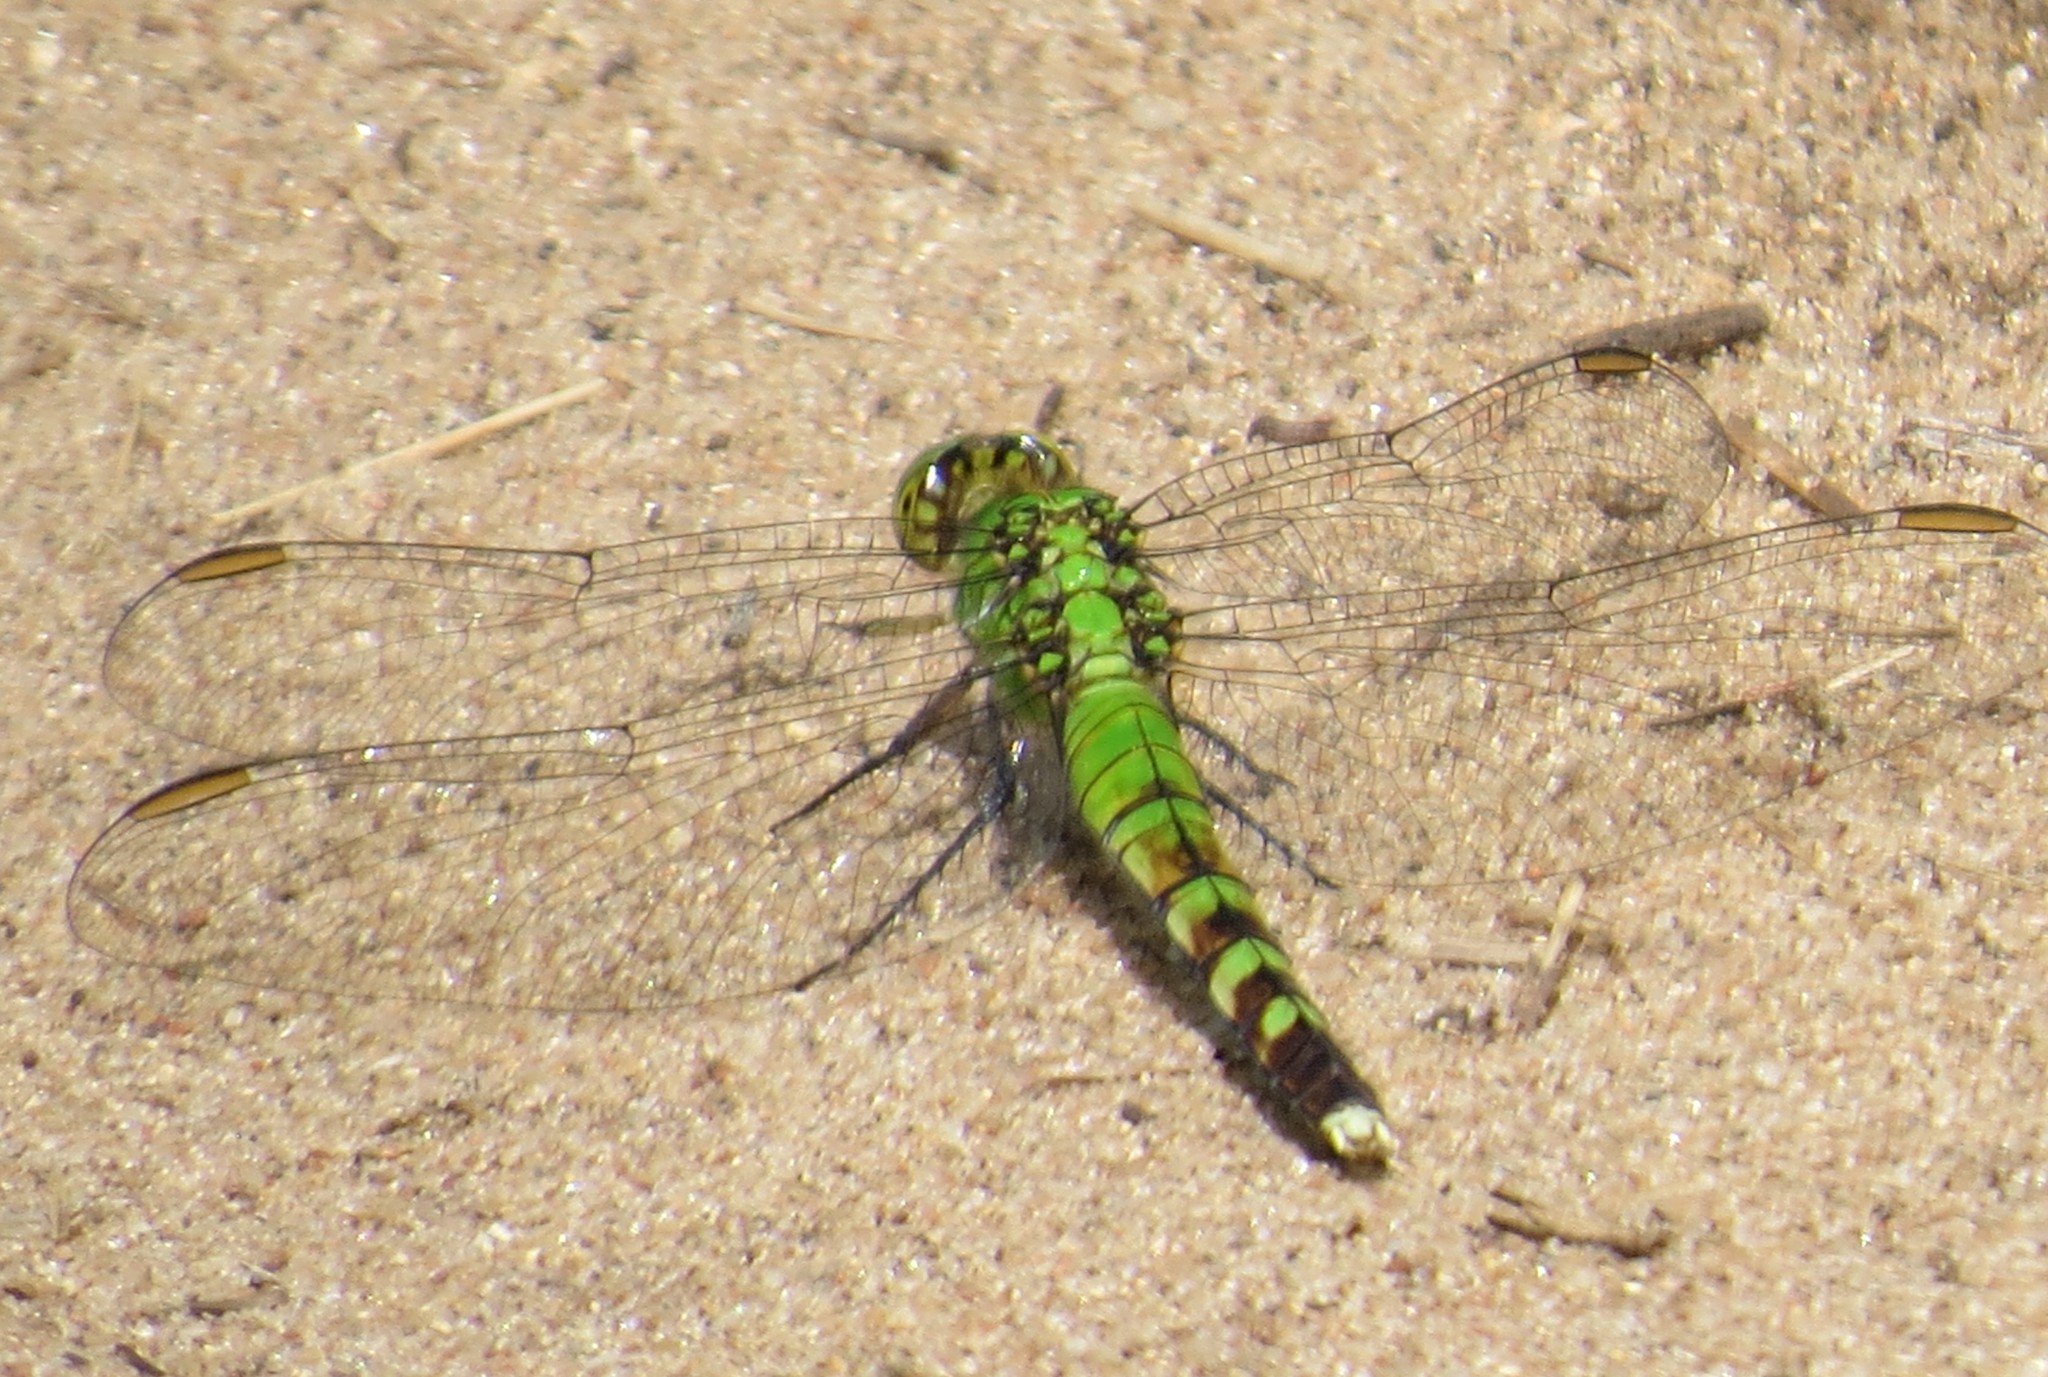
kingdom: Animalia
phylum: Arthropoda
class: Insecta
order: Odonata
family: Libellulidae
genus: Erythemis
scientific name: Erythemis simplicicollis
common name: Eastern pondhawk
